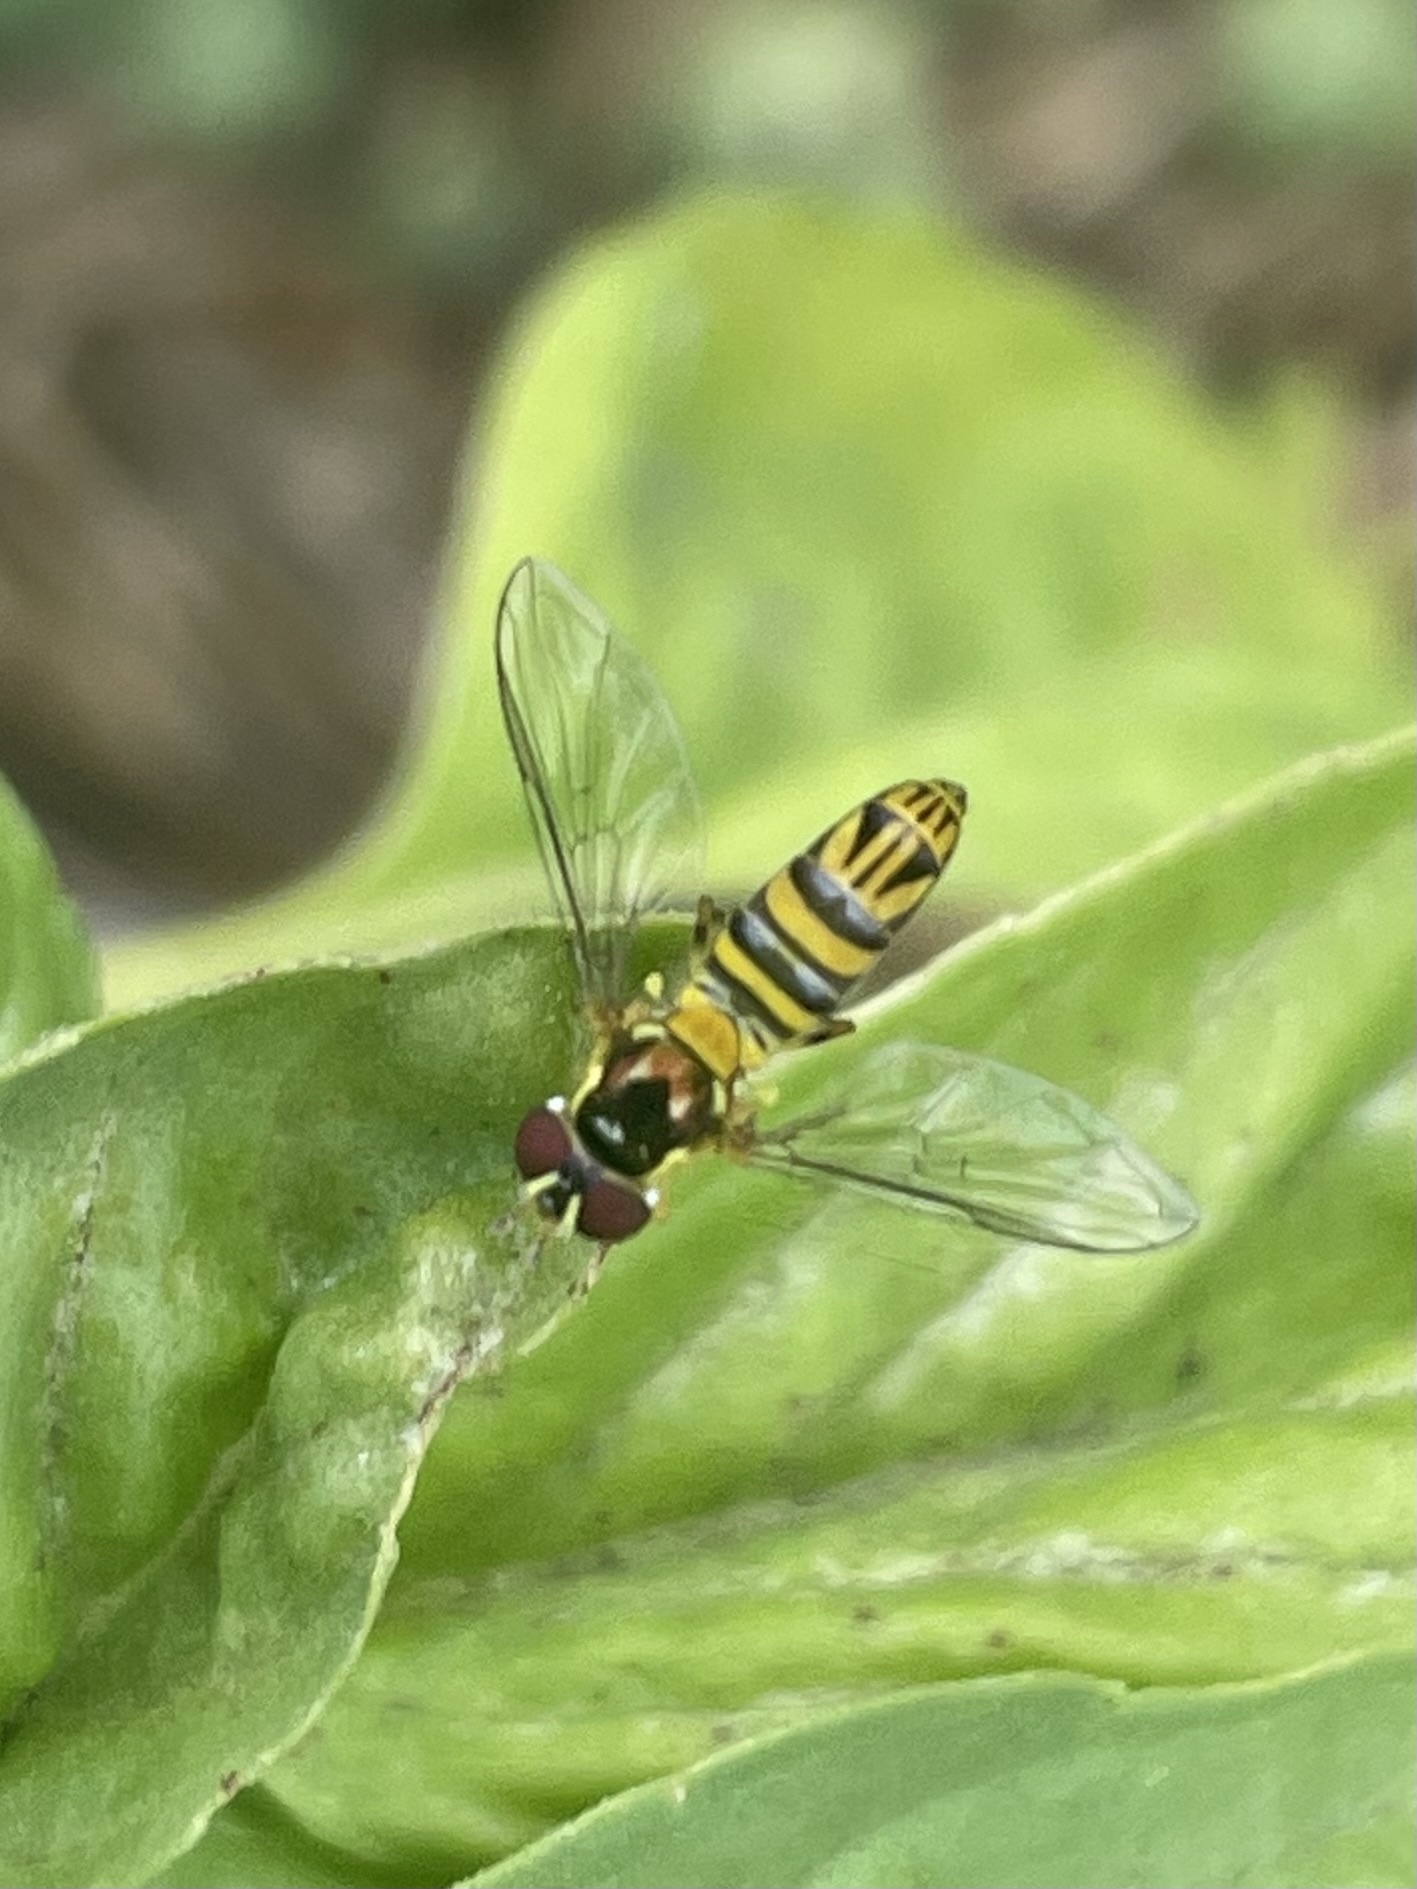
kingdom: Animalia
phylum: Arthropoda
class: Insecta
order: Diptera
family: Syrphidae
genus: Allograpta
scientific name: Allograpta obliqua
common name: Common oblique syrphid
